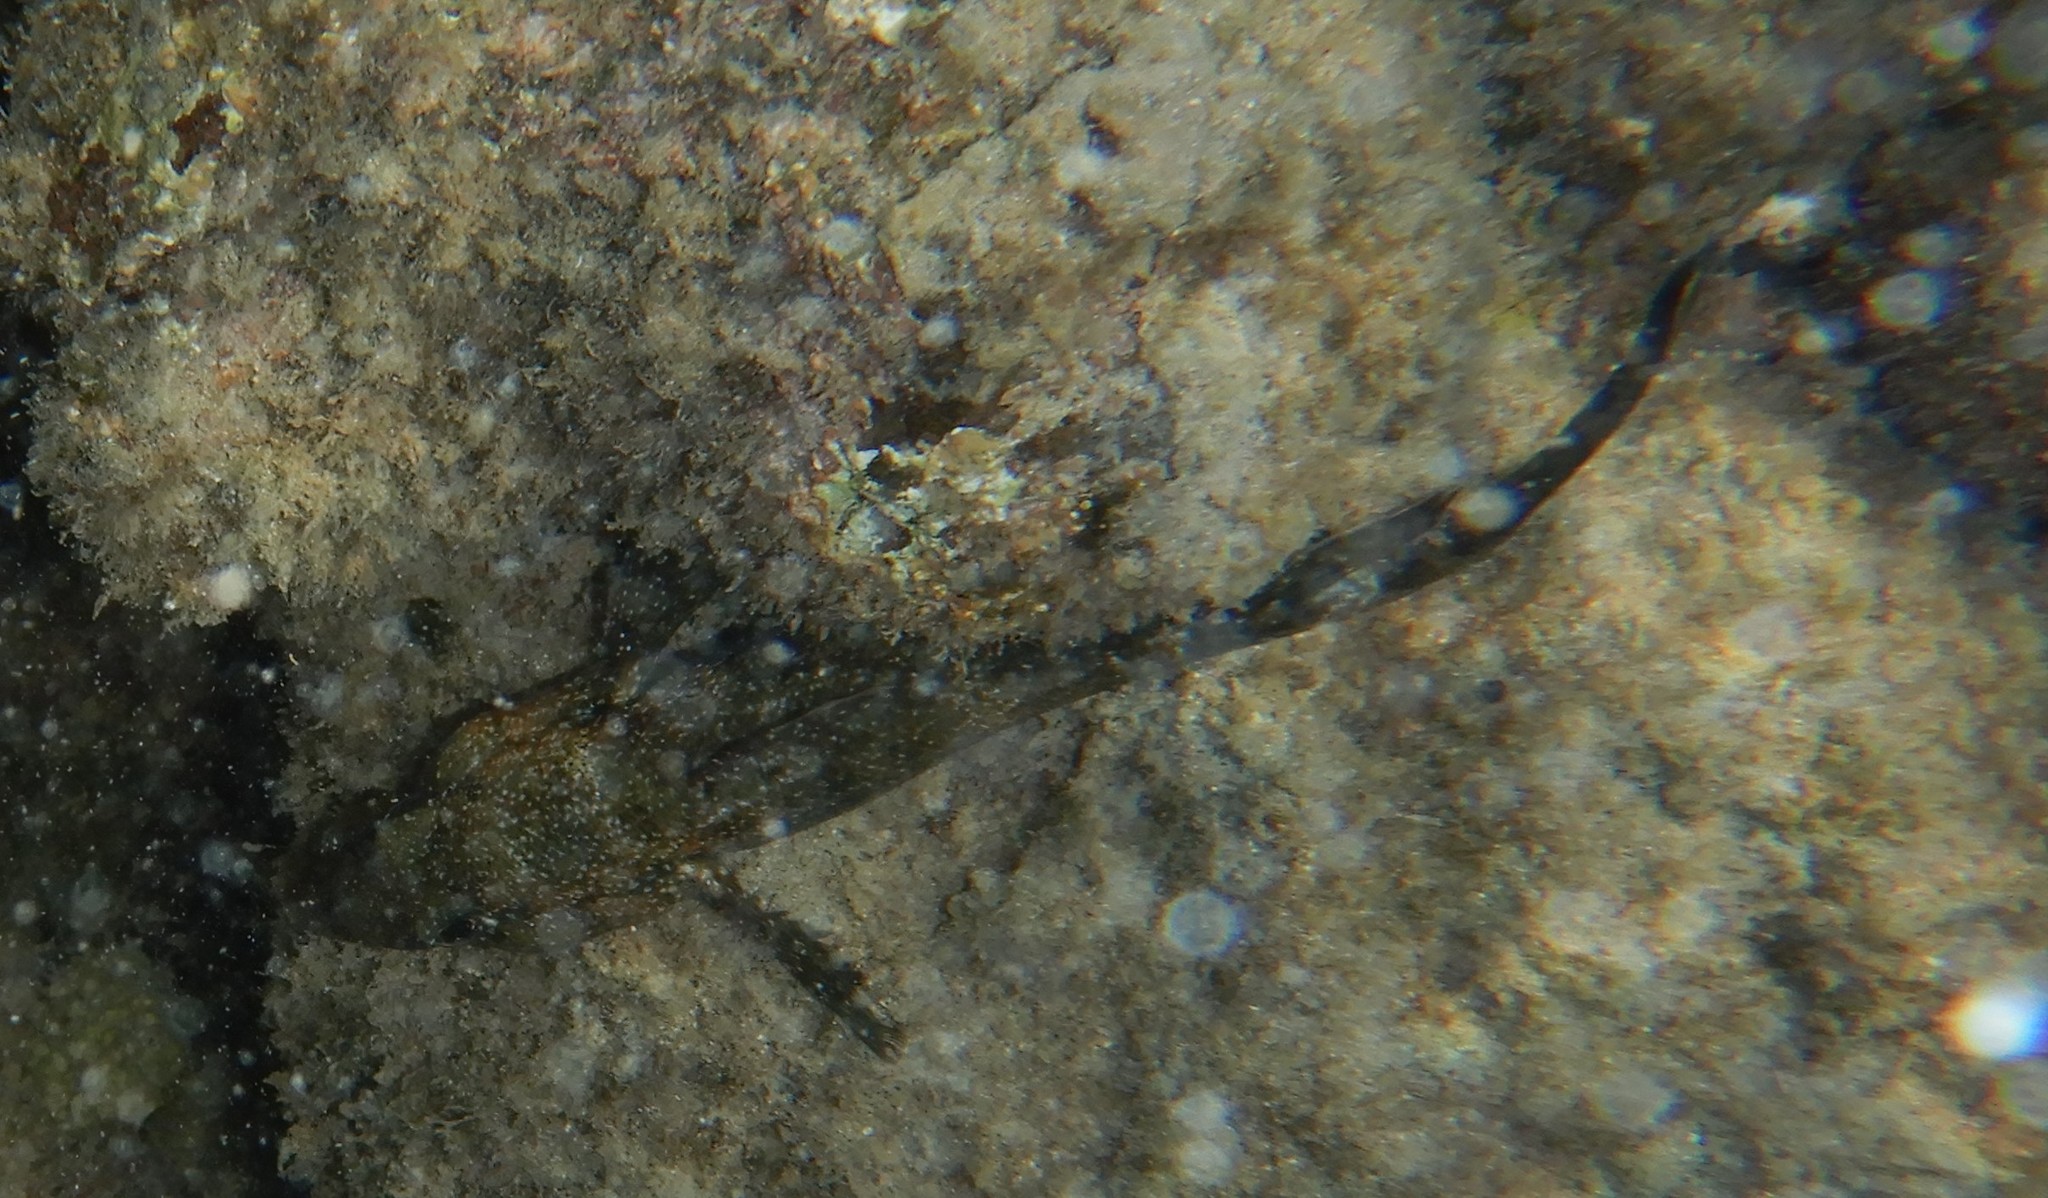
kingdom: Animalia
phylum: Chordata
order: Perciformes
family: Gobiidae
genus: Mauligobius
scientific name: Mauligobius maderensis
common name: Rock goby
